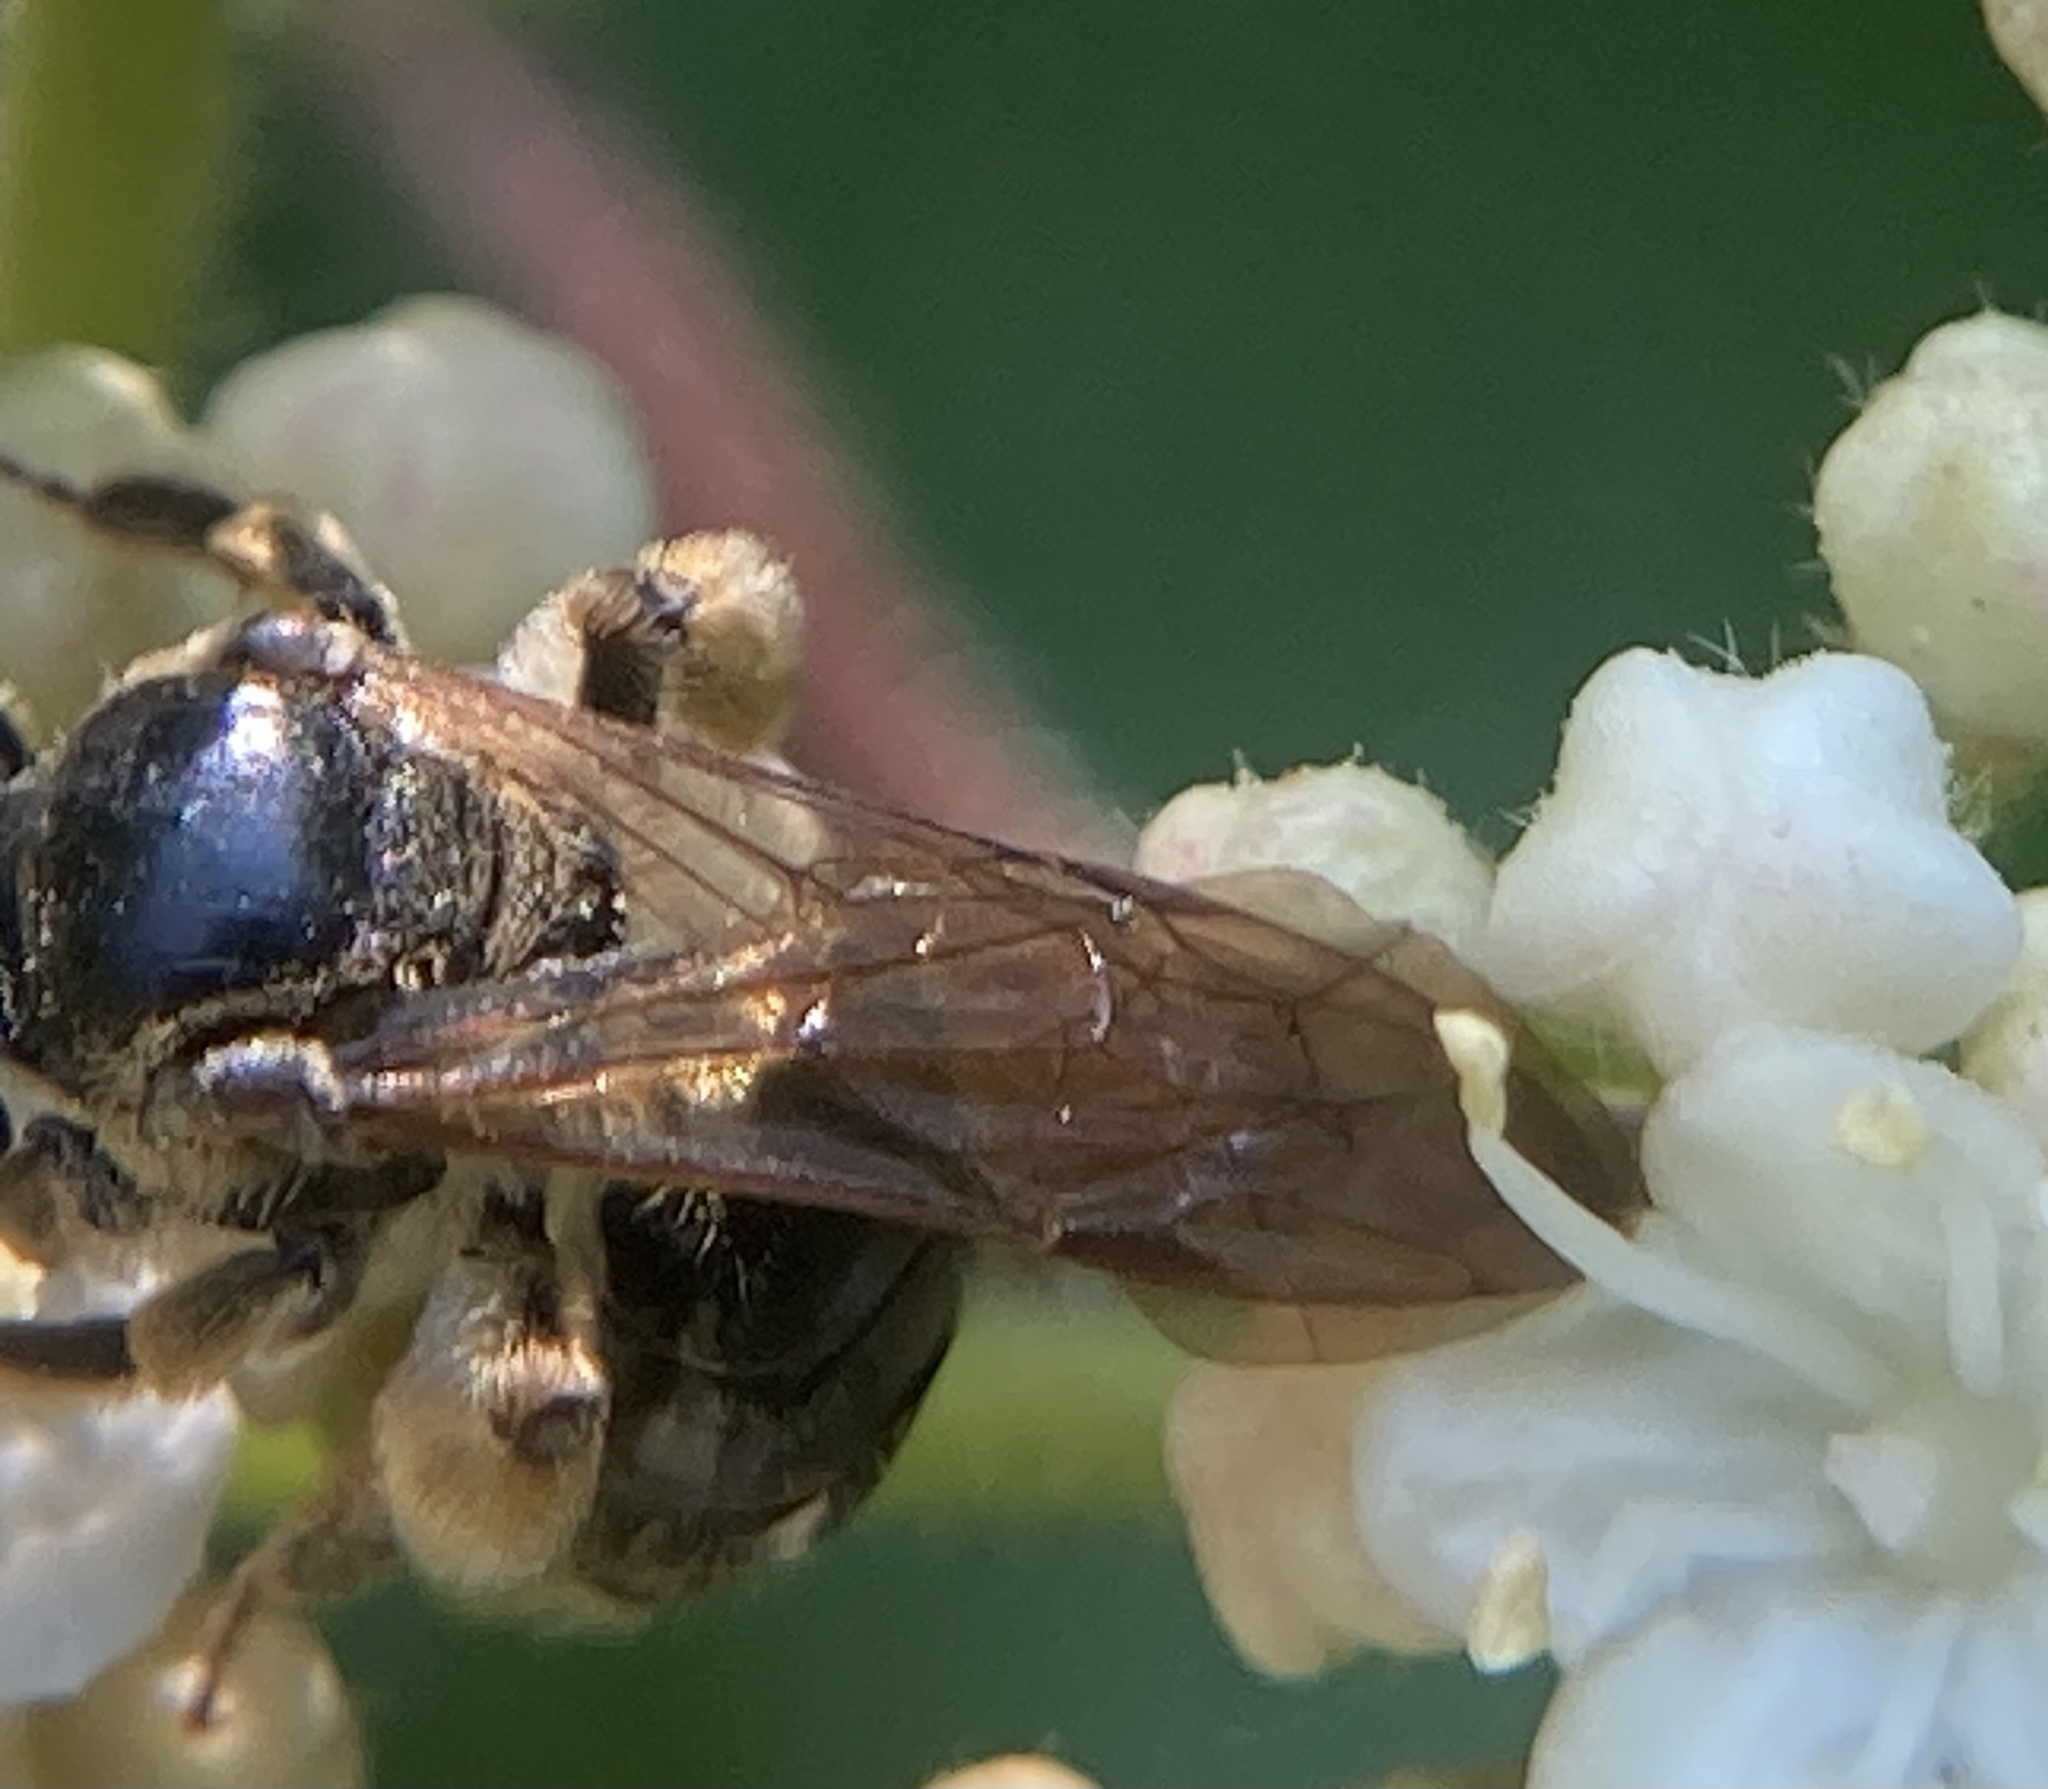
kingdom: Animalia
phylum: Arthropoda
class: Insecta
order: Hymenoptera
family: Andrenidae
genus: Andrena
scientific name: Andrena nuda
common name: Nude mining bee
